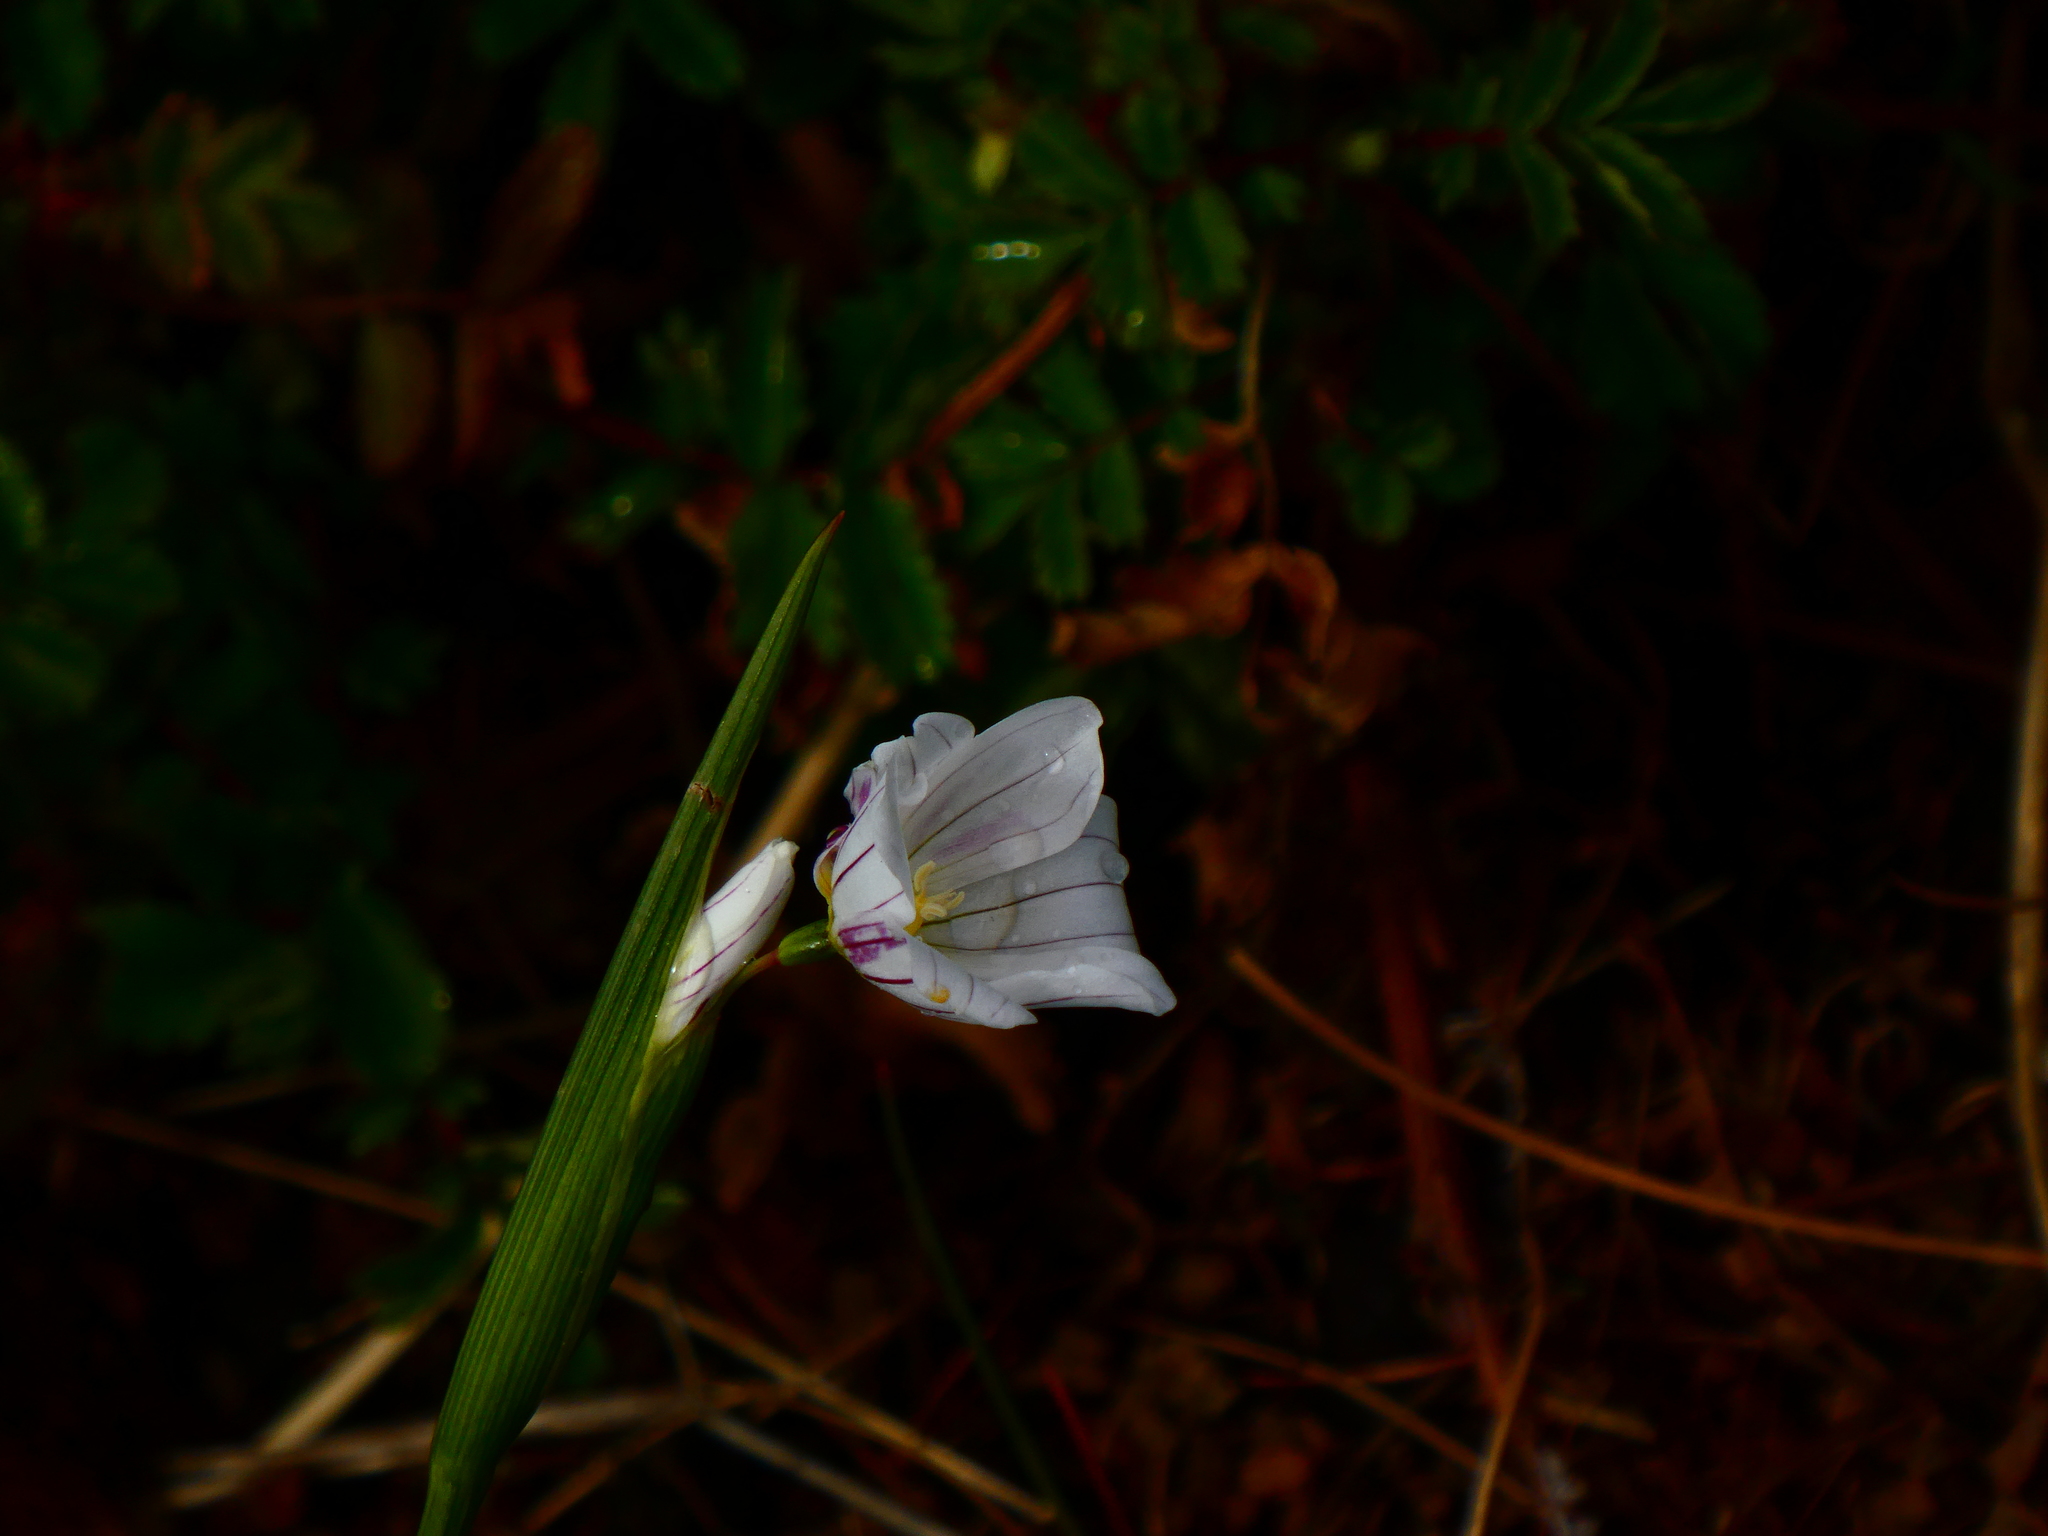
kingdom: Plantae
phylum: Tracheophyta
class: Liliopsida
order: Asparagales
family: Iridaceae
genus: Olsynium
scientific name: Olsynium filifolium
